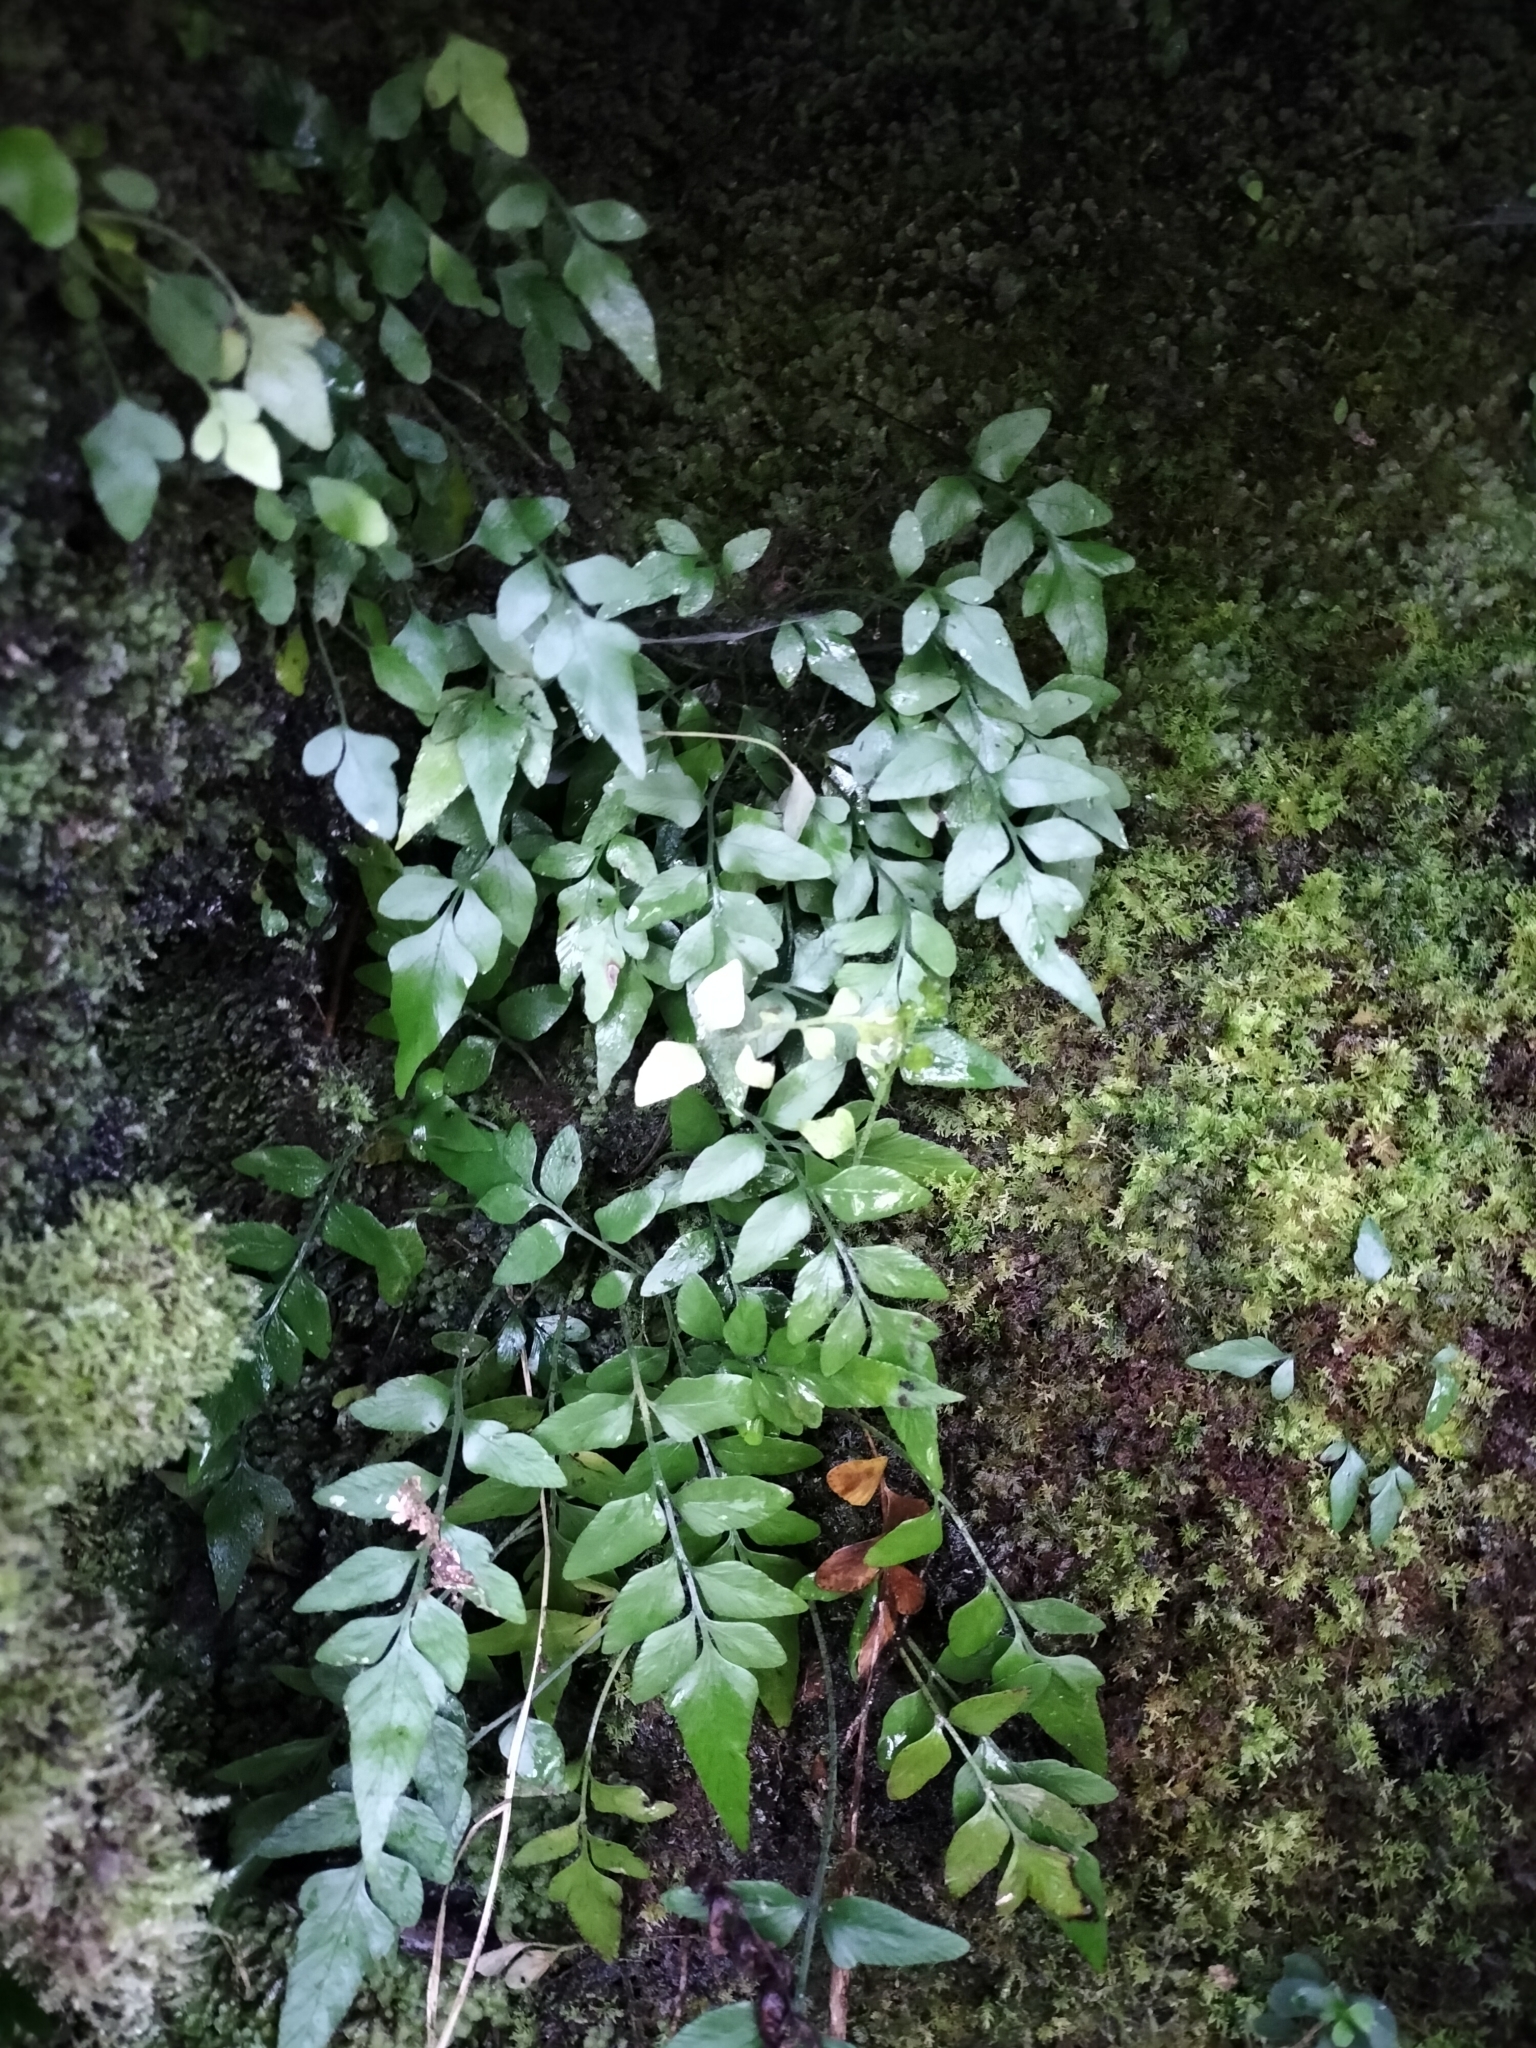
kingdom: Plantae
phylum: Tracheophyta
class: Polypodiopsida
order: Polypodiales
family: Aspleniaceae
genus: Asplenium
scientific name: Asplenium lyallii
